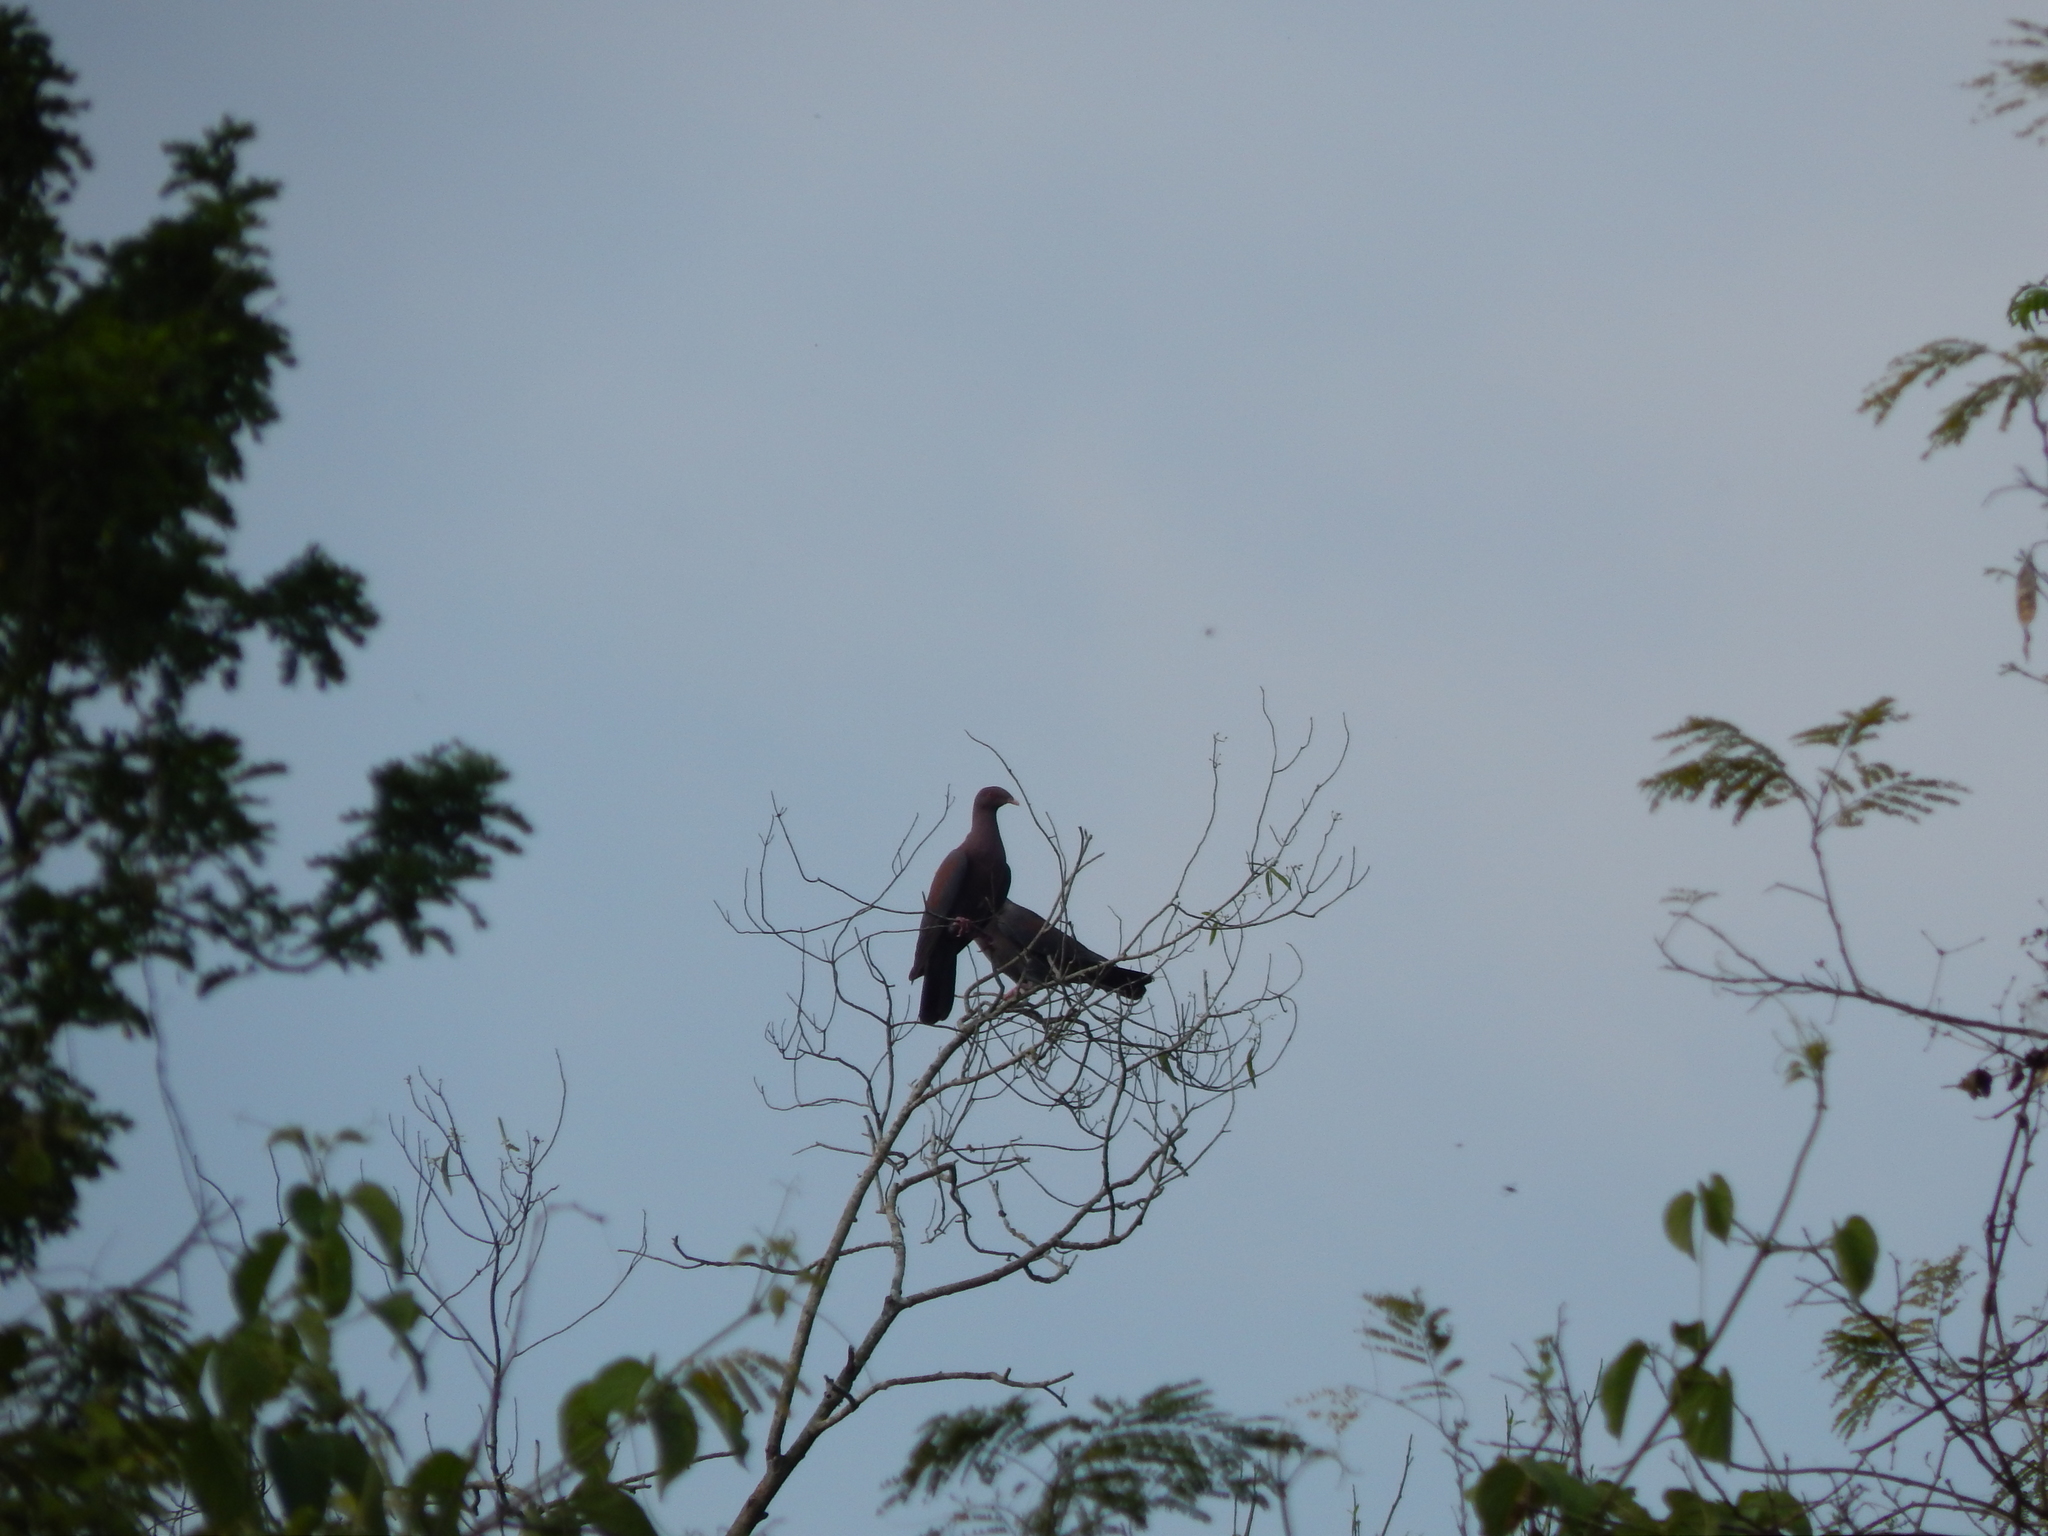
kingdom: Animalia
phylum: Chordata
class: Aves
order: Columbiformes
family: Columbidae
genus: Patagioenas
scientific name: Patagioenas flavirostris
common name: Red-billed pigeon
